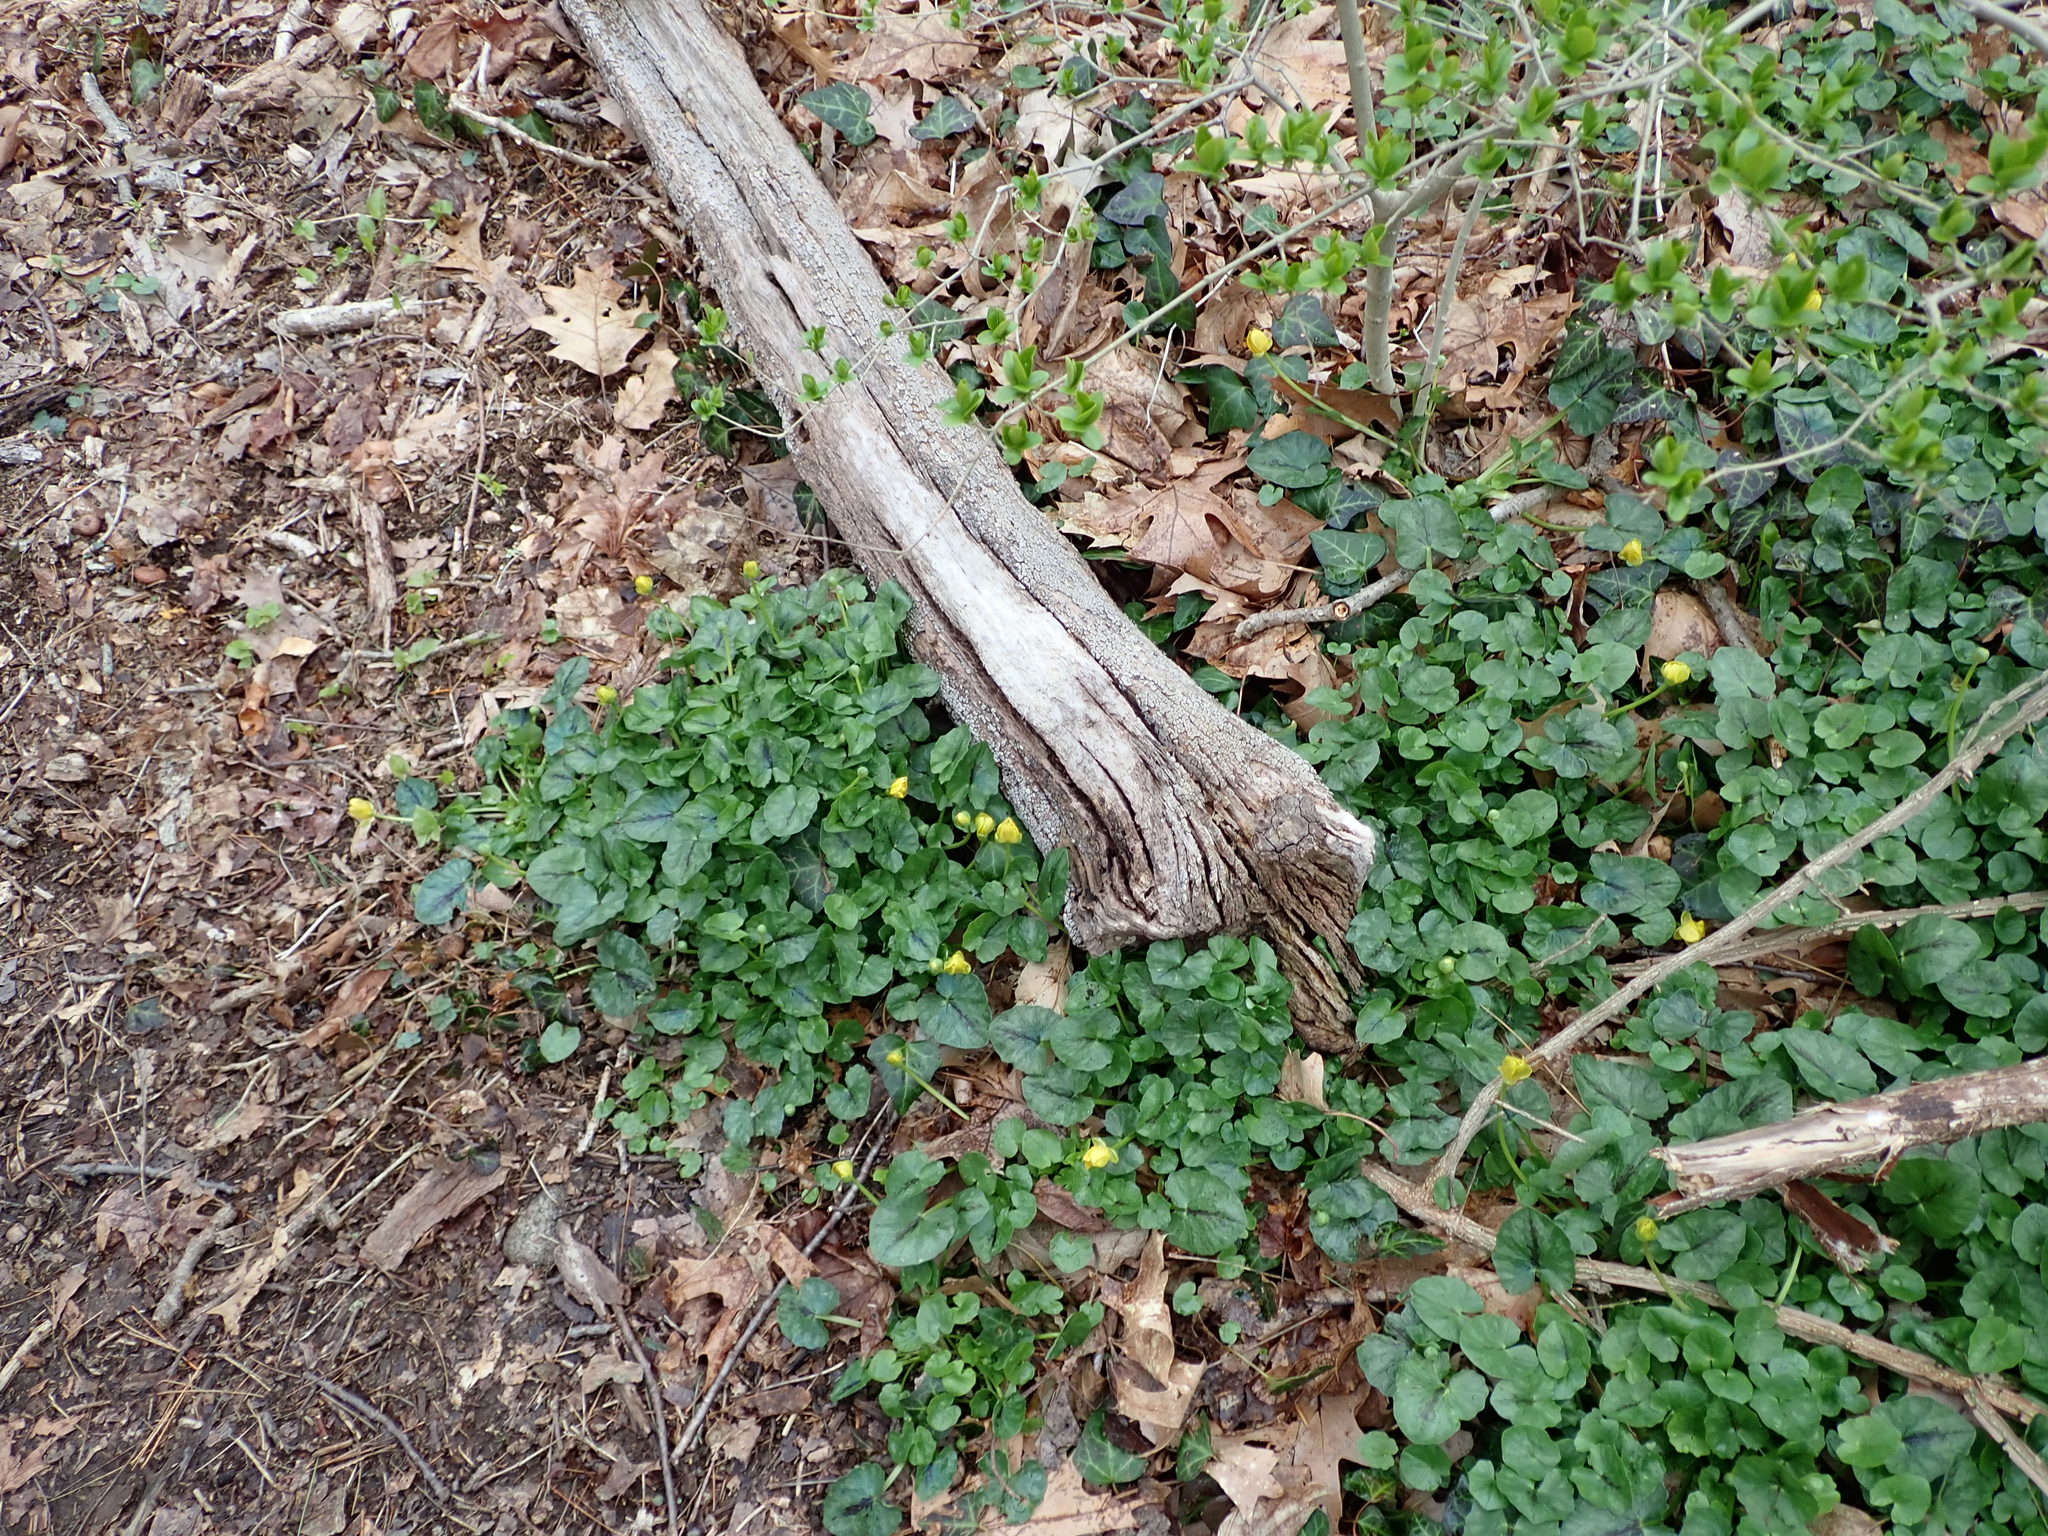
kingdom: Plantae
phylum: Tracheophyta
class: Magnoliopsida
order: Ranunculales
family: Ranunculaceae
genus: Ficaria
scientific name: Ficaria verna
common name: Lesser celandine
